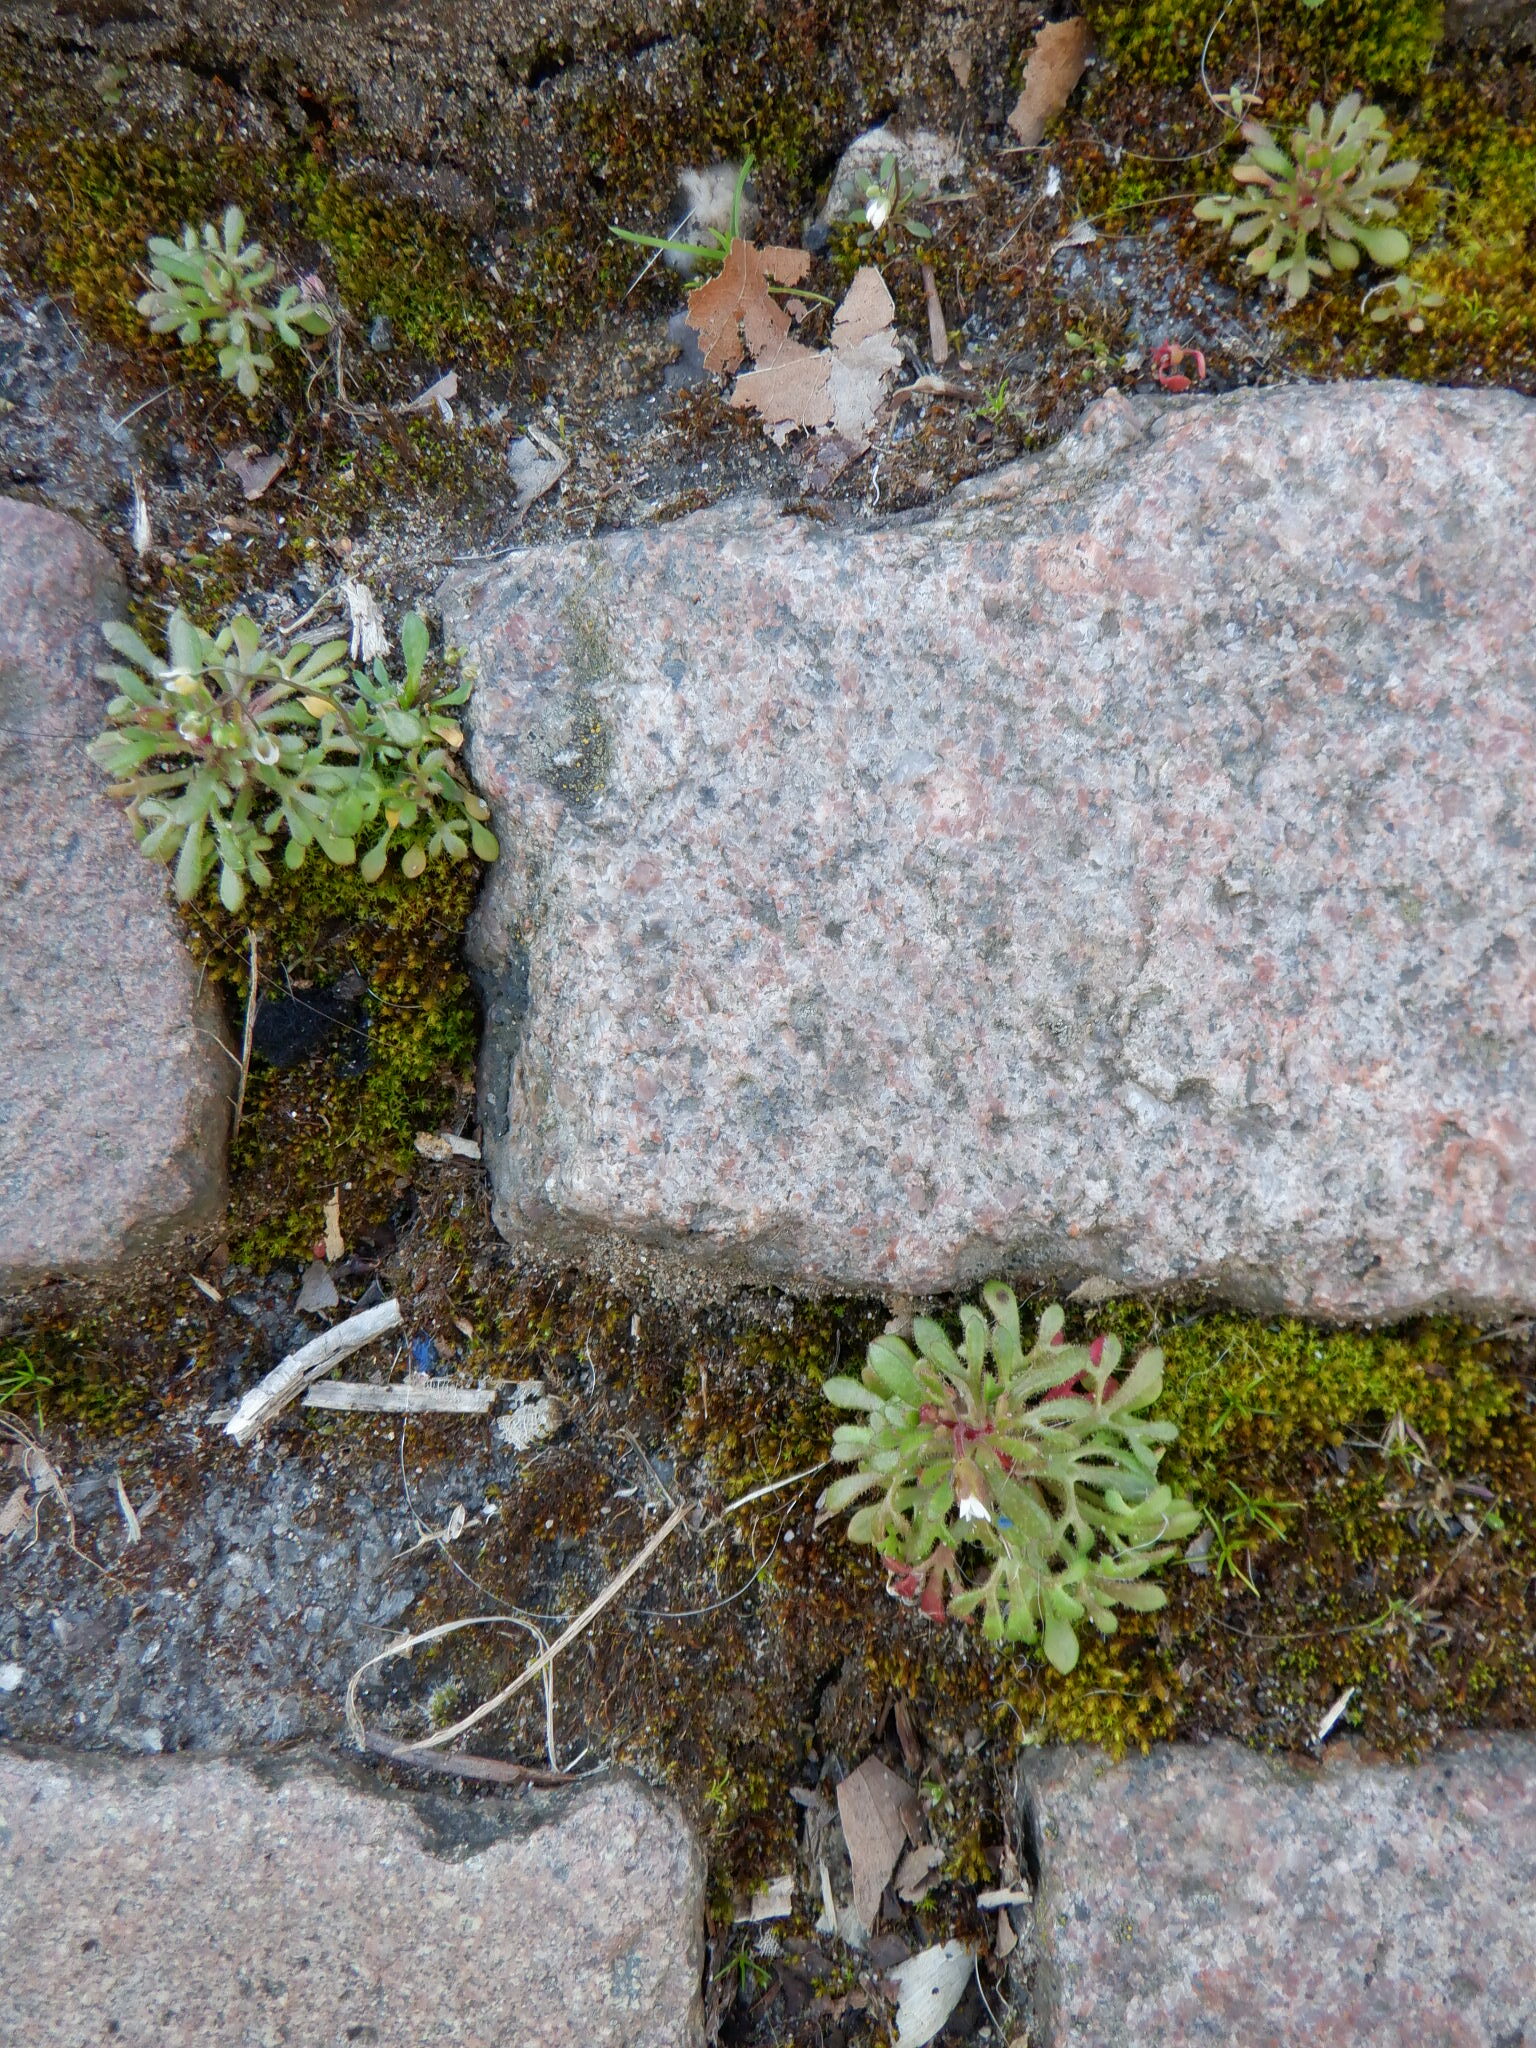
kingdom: Plantae
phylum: Tracheophyta
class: Magnoliopsida
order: Saxifragales
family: Saxifragaceae
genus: Saxifraga
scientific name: Saxifraga tridactylites
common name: Rue-leaved saxifrage
